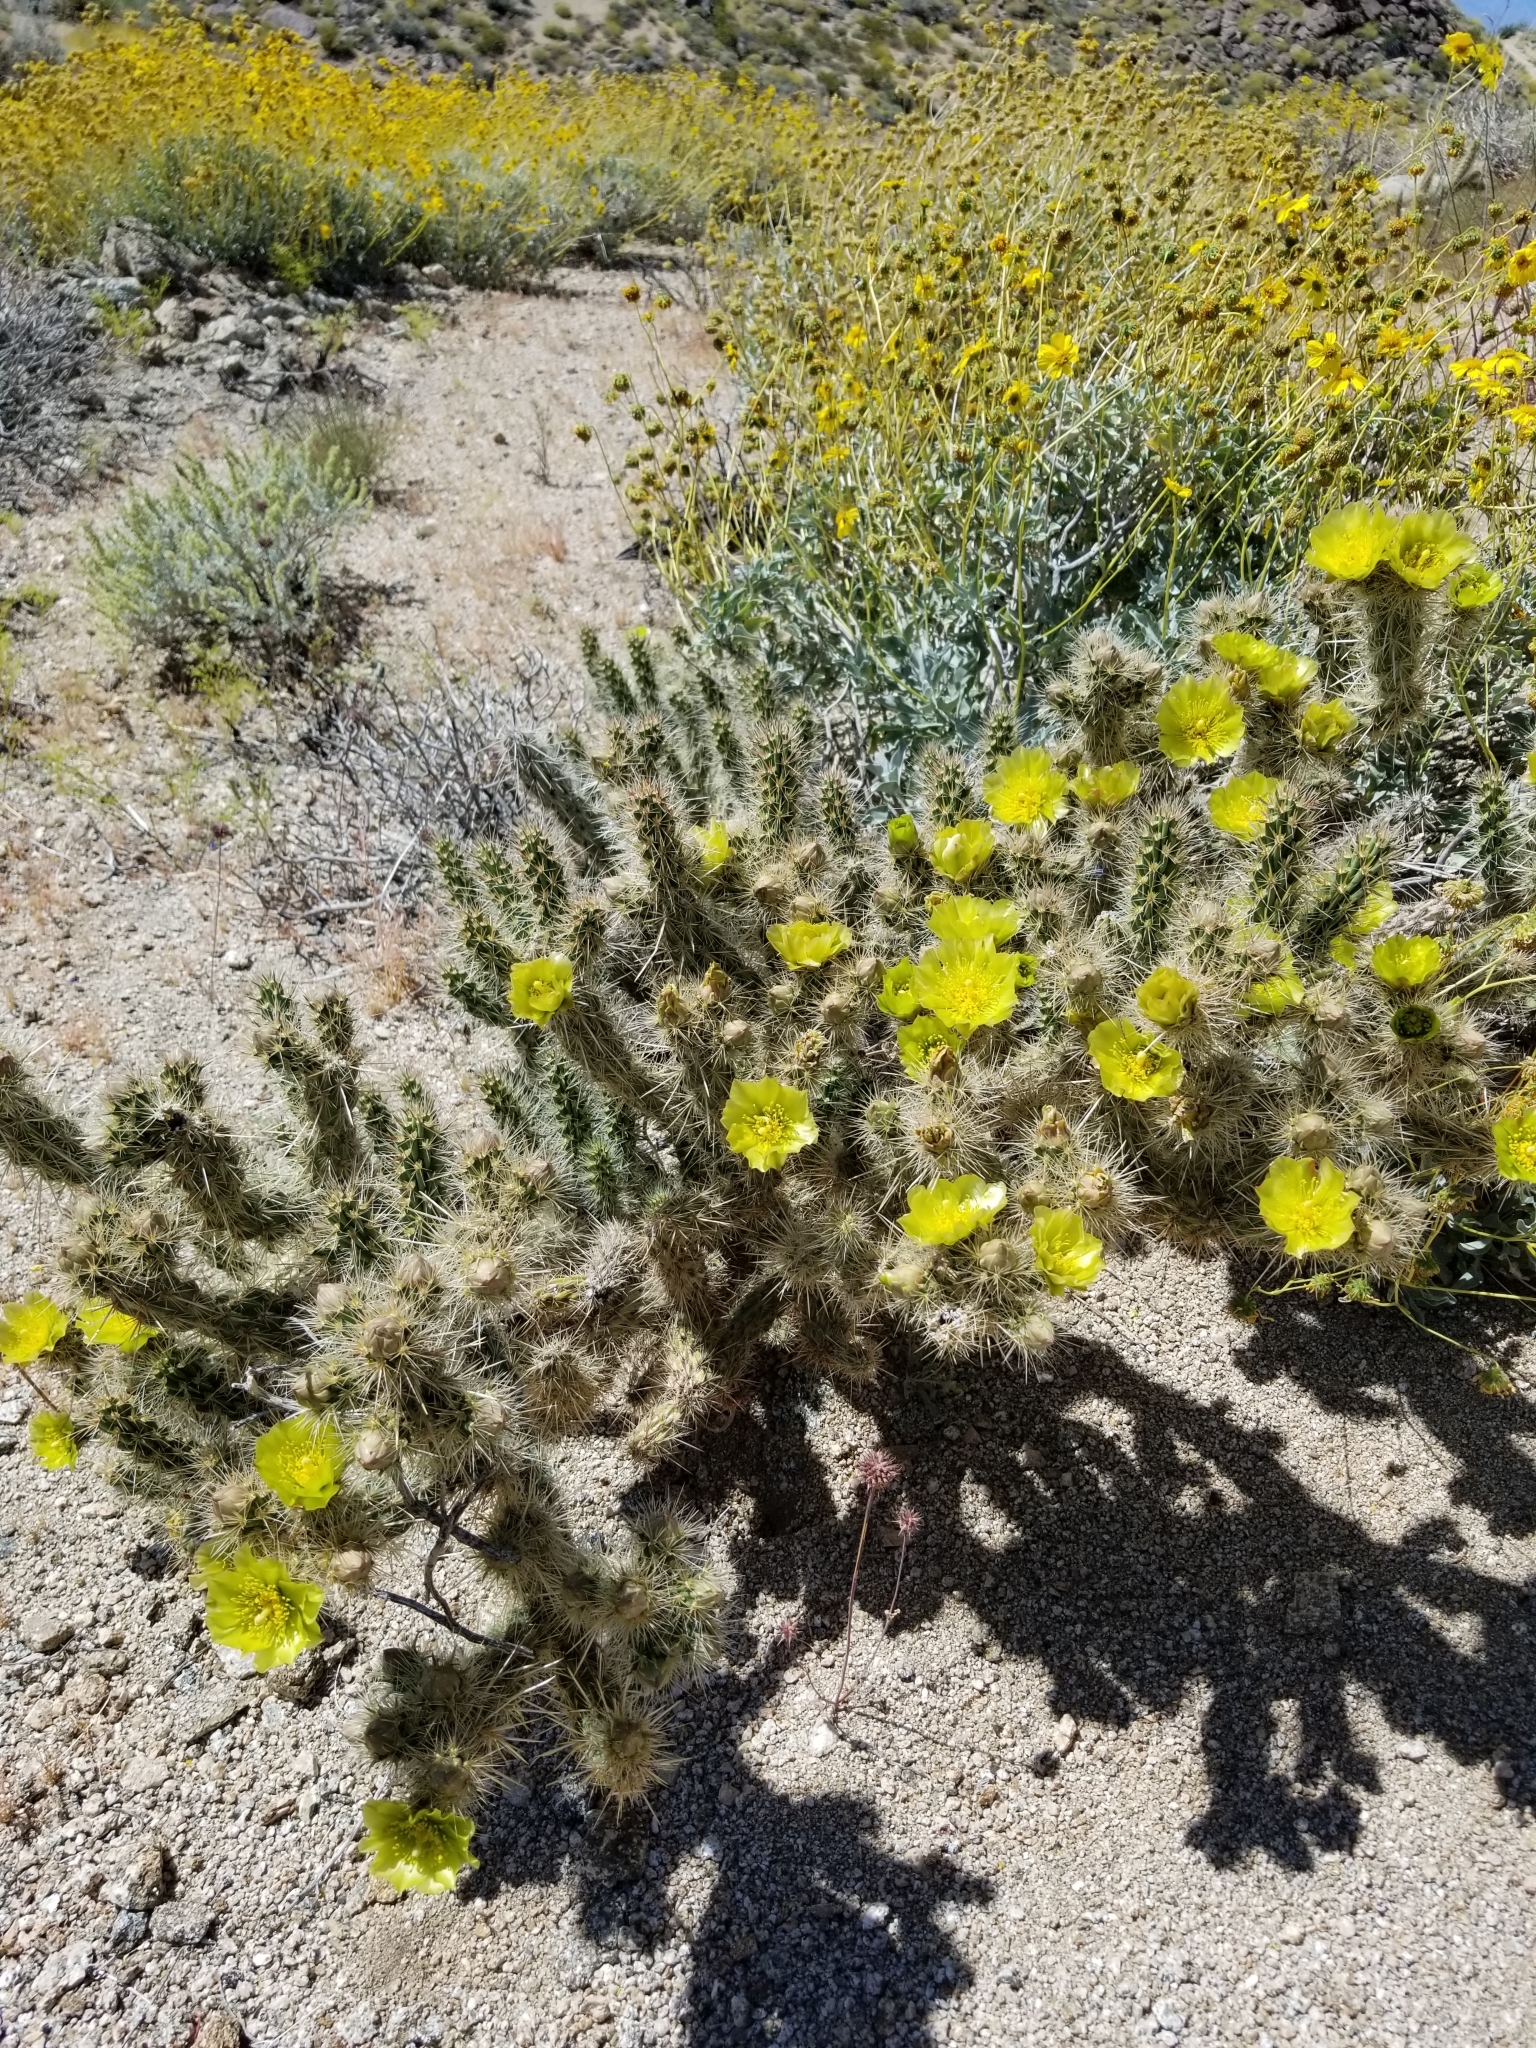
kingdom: Plantae
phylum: Tracheophyta
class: Magnoliopsida
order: Caryophyllales
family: Cactaceae
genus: Cylindropuntia
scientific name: Cylindropuntia echinocarpa
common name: Ground cholla
